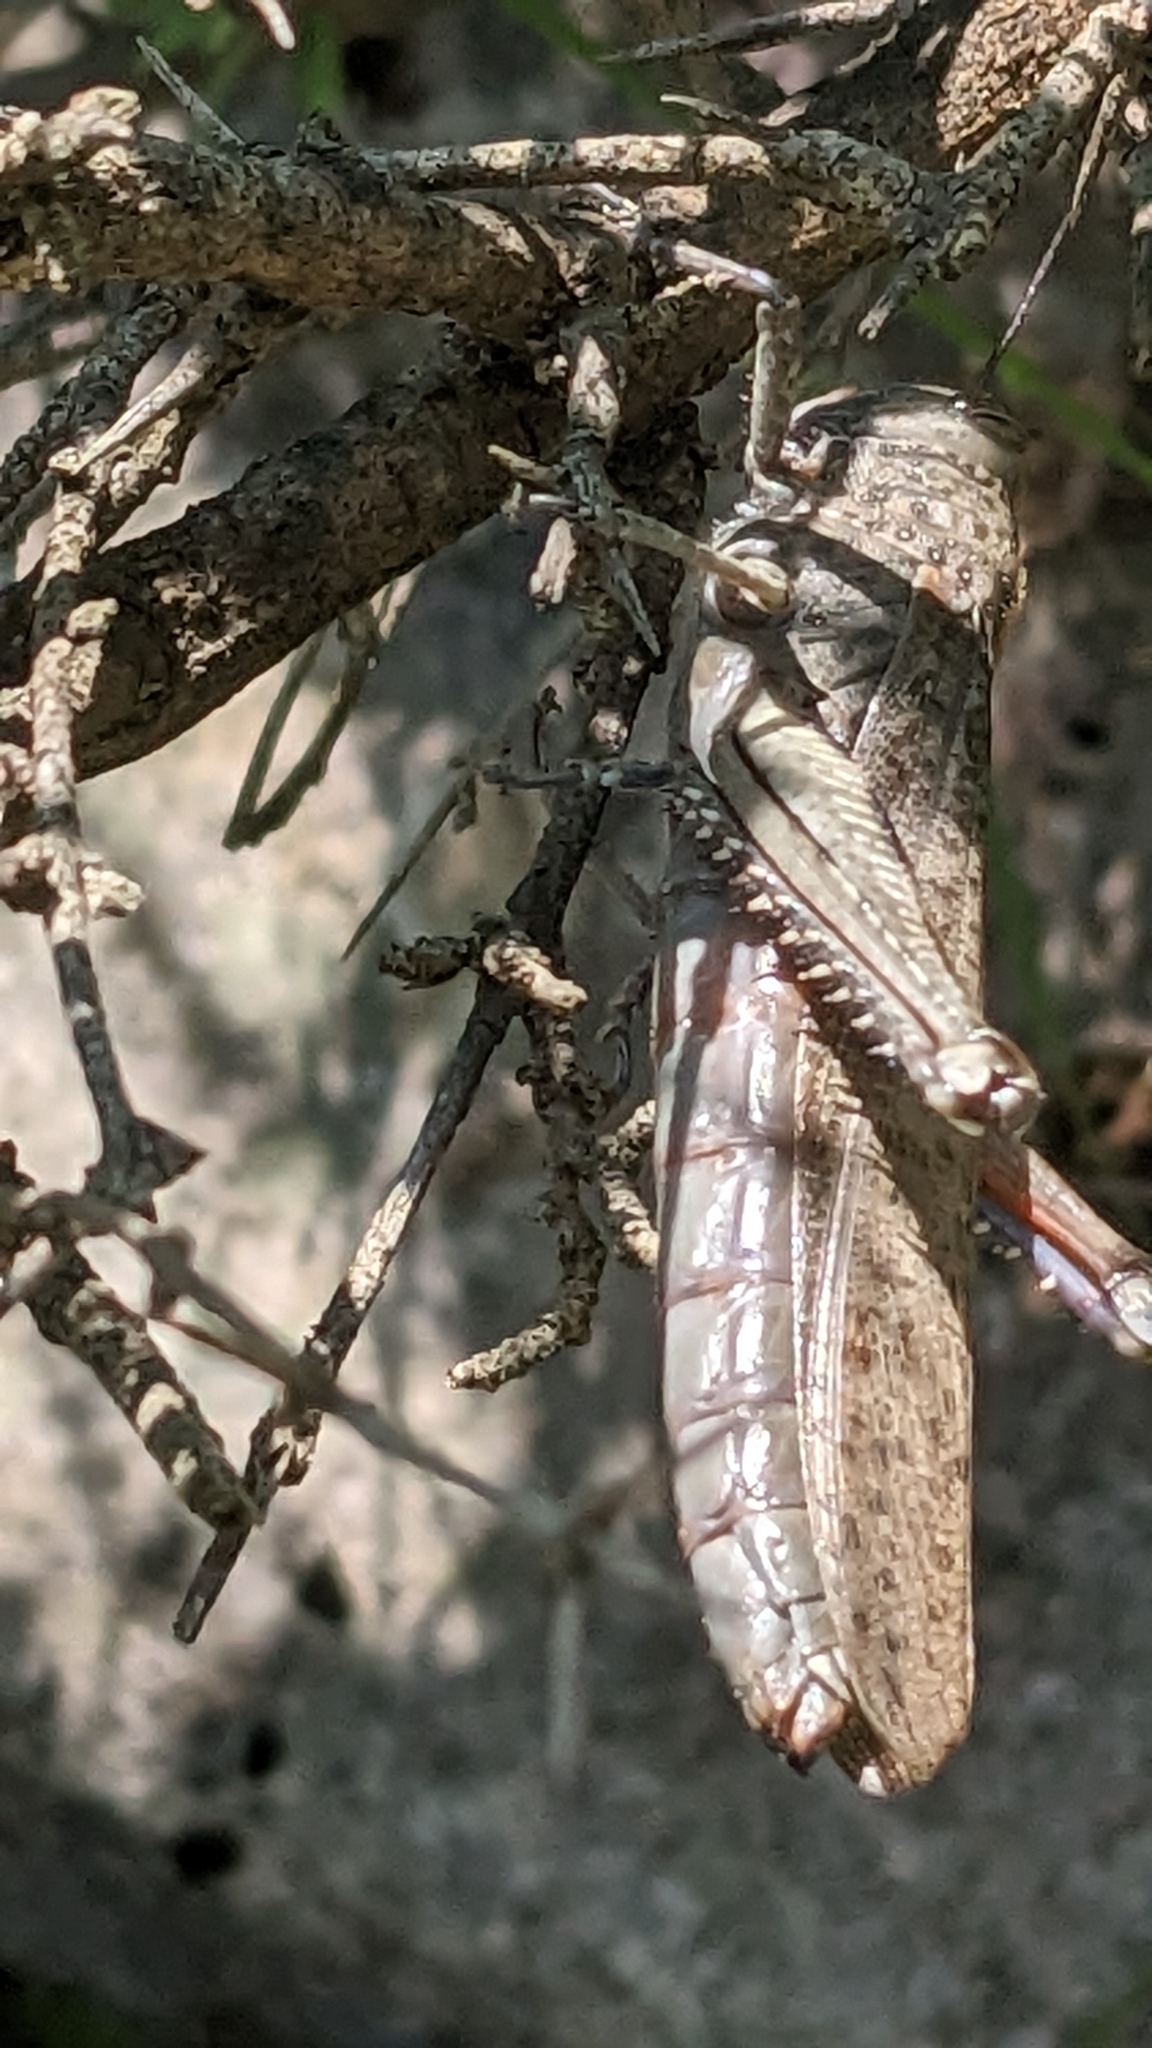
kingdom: Animalia
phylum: Arthropoda
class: Insecta
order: Orthoptera
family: Acrididae
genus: Anacridium
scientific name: Anacridium aegyptium
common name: Egyptian grasshopper
